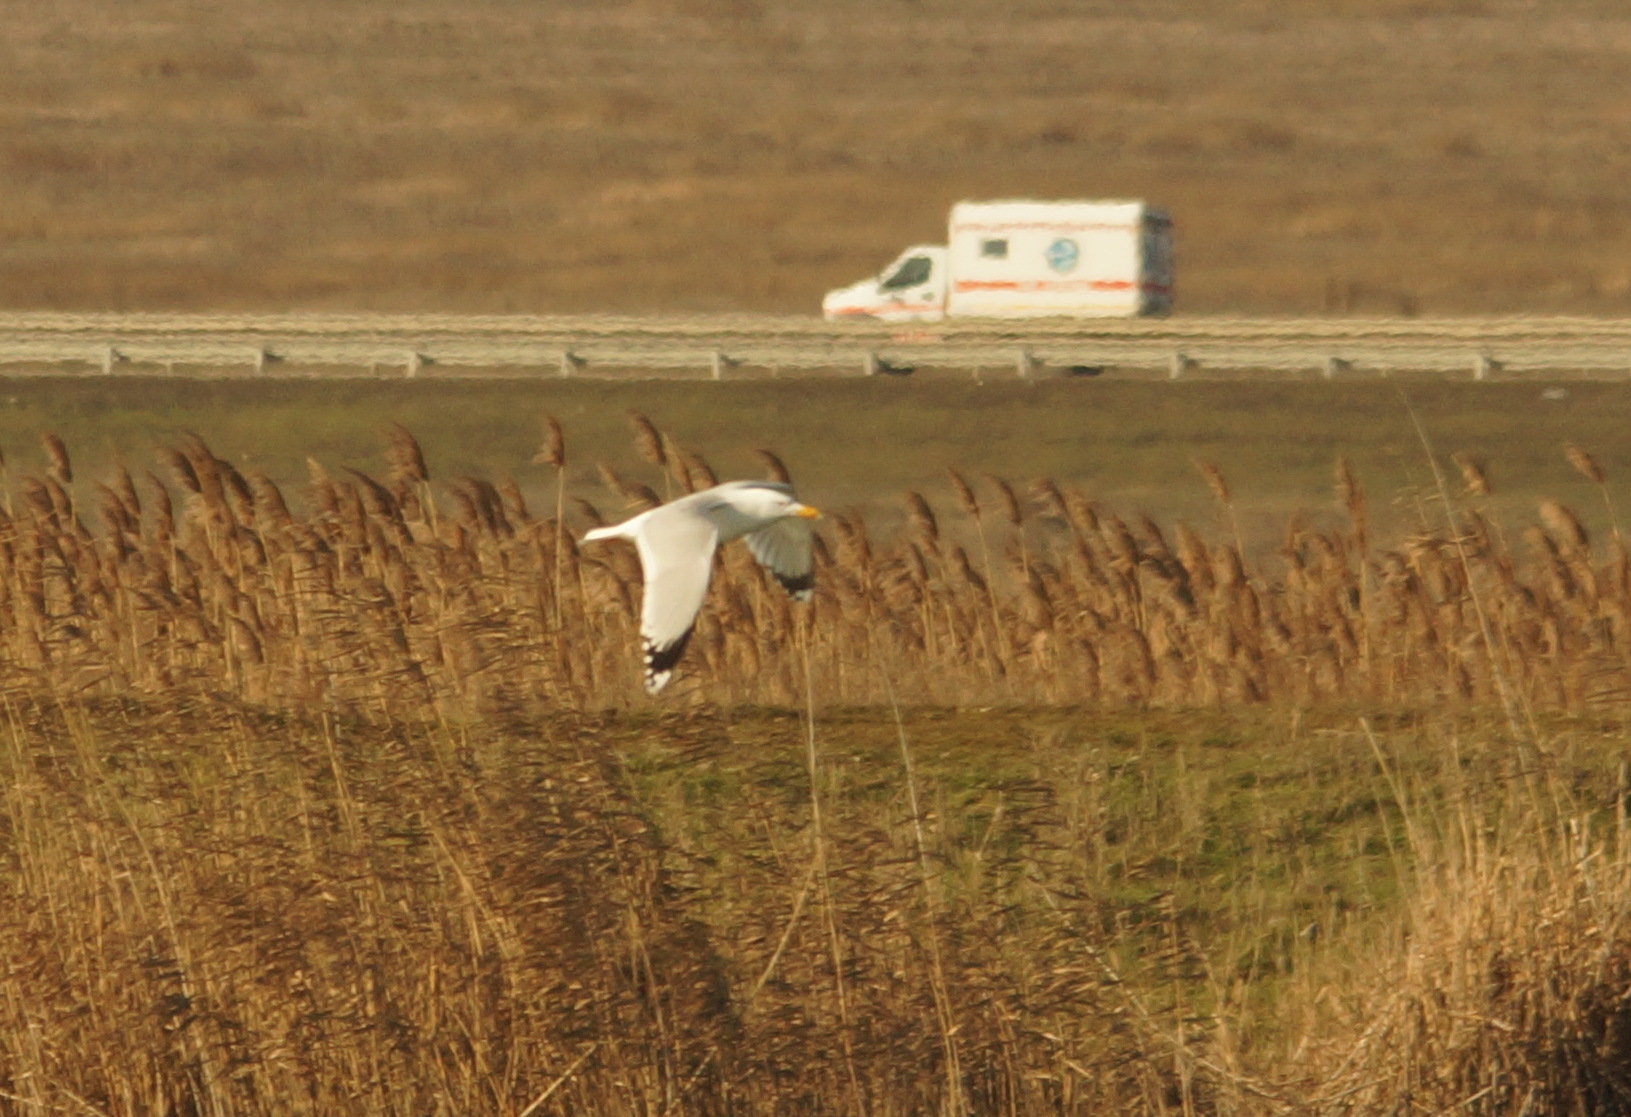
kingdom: Animalia
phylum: Chordata
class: Aves
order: Charadriiformes
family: Laridae
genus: Larus
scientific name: Larus cachinnans
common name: Caspian gull
